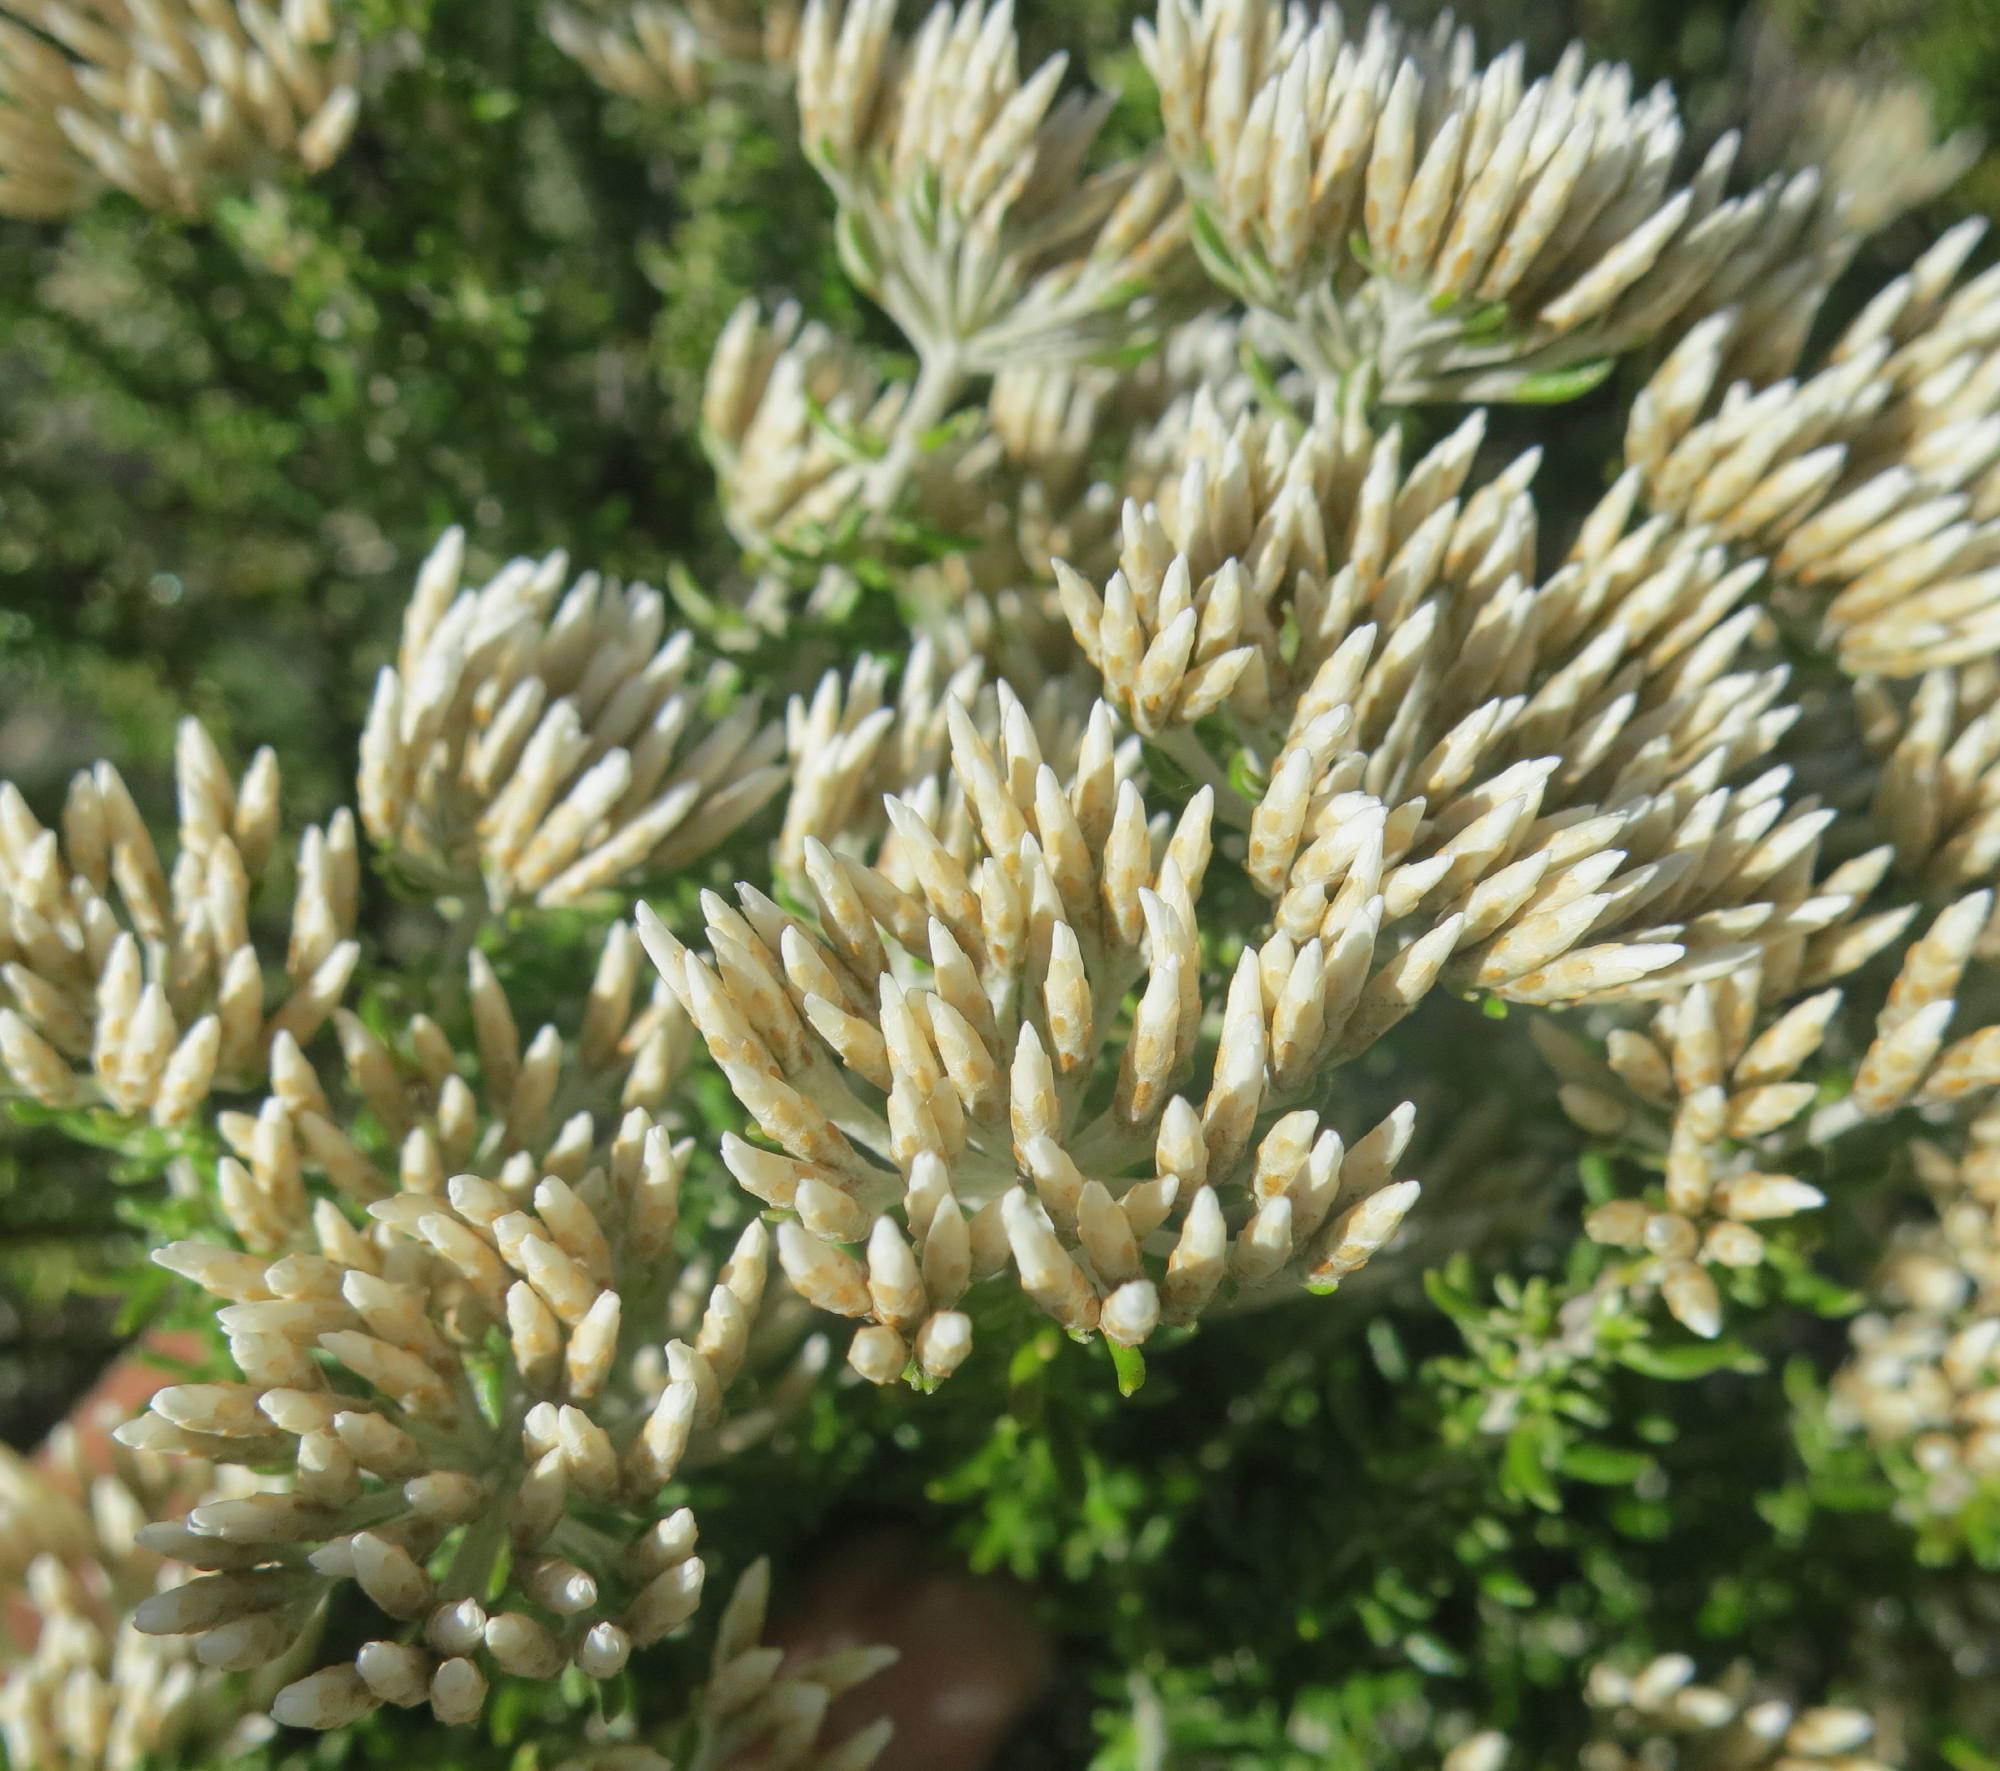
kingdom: Plantae
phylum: Tracheophyta
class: Magnoliopsida
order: Asterales
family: Asteraceae
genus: Metalasia
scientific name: Metalasia muricata
